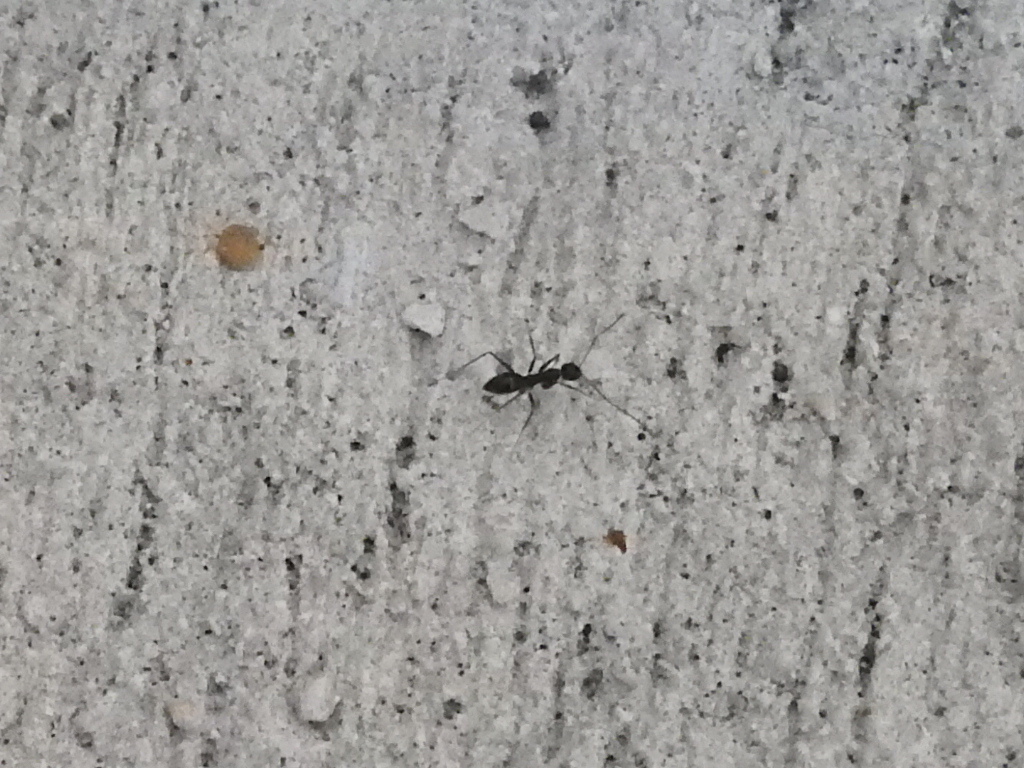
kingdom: Animalia
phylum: Arthropoda
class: Insecta
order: Hymenoptera
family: Formicidae
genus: Paratrechina
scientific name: Paratrechina longicornis
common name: Longhorned crazy ant
